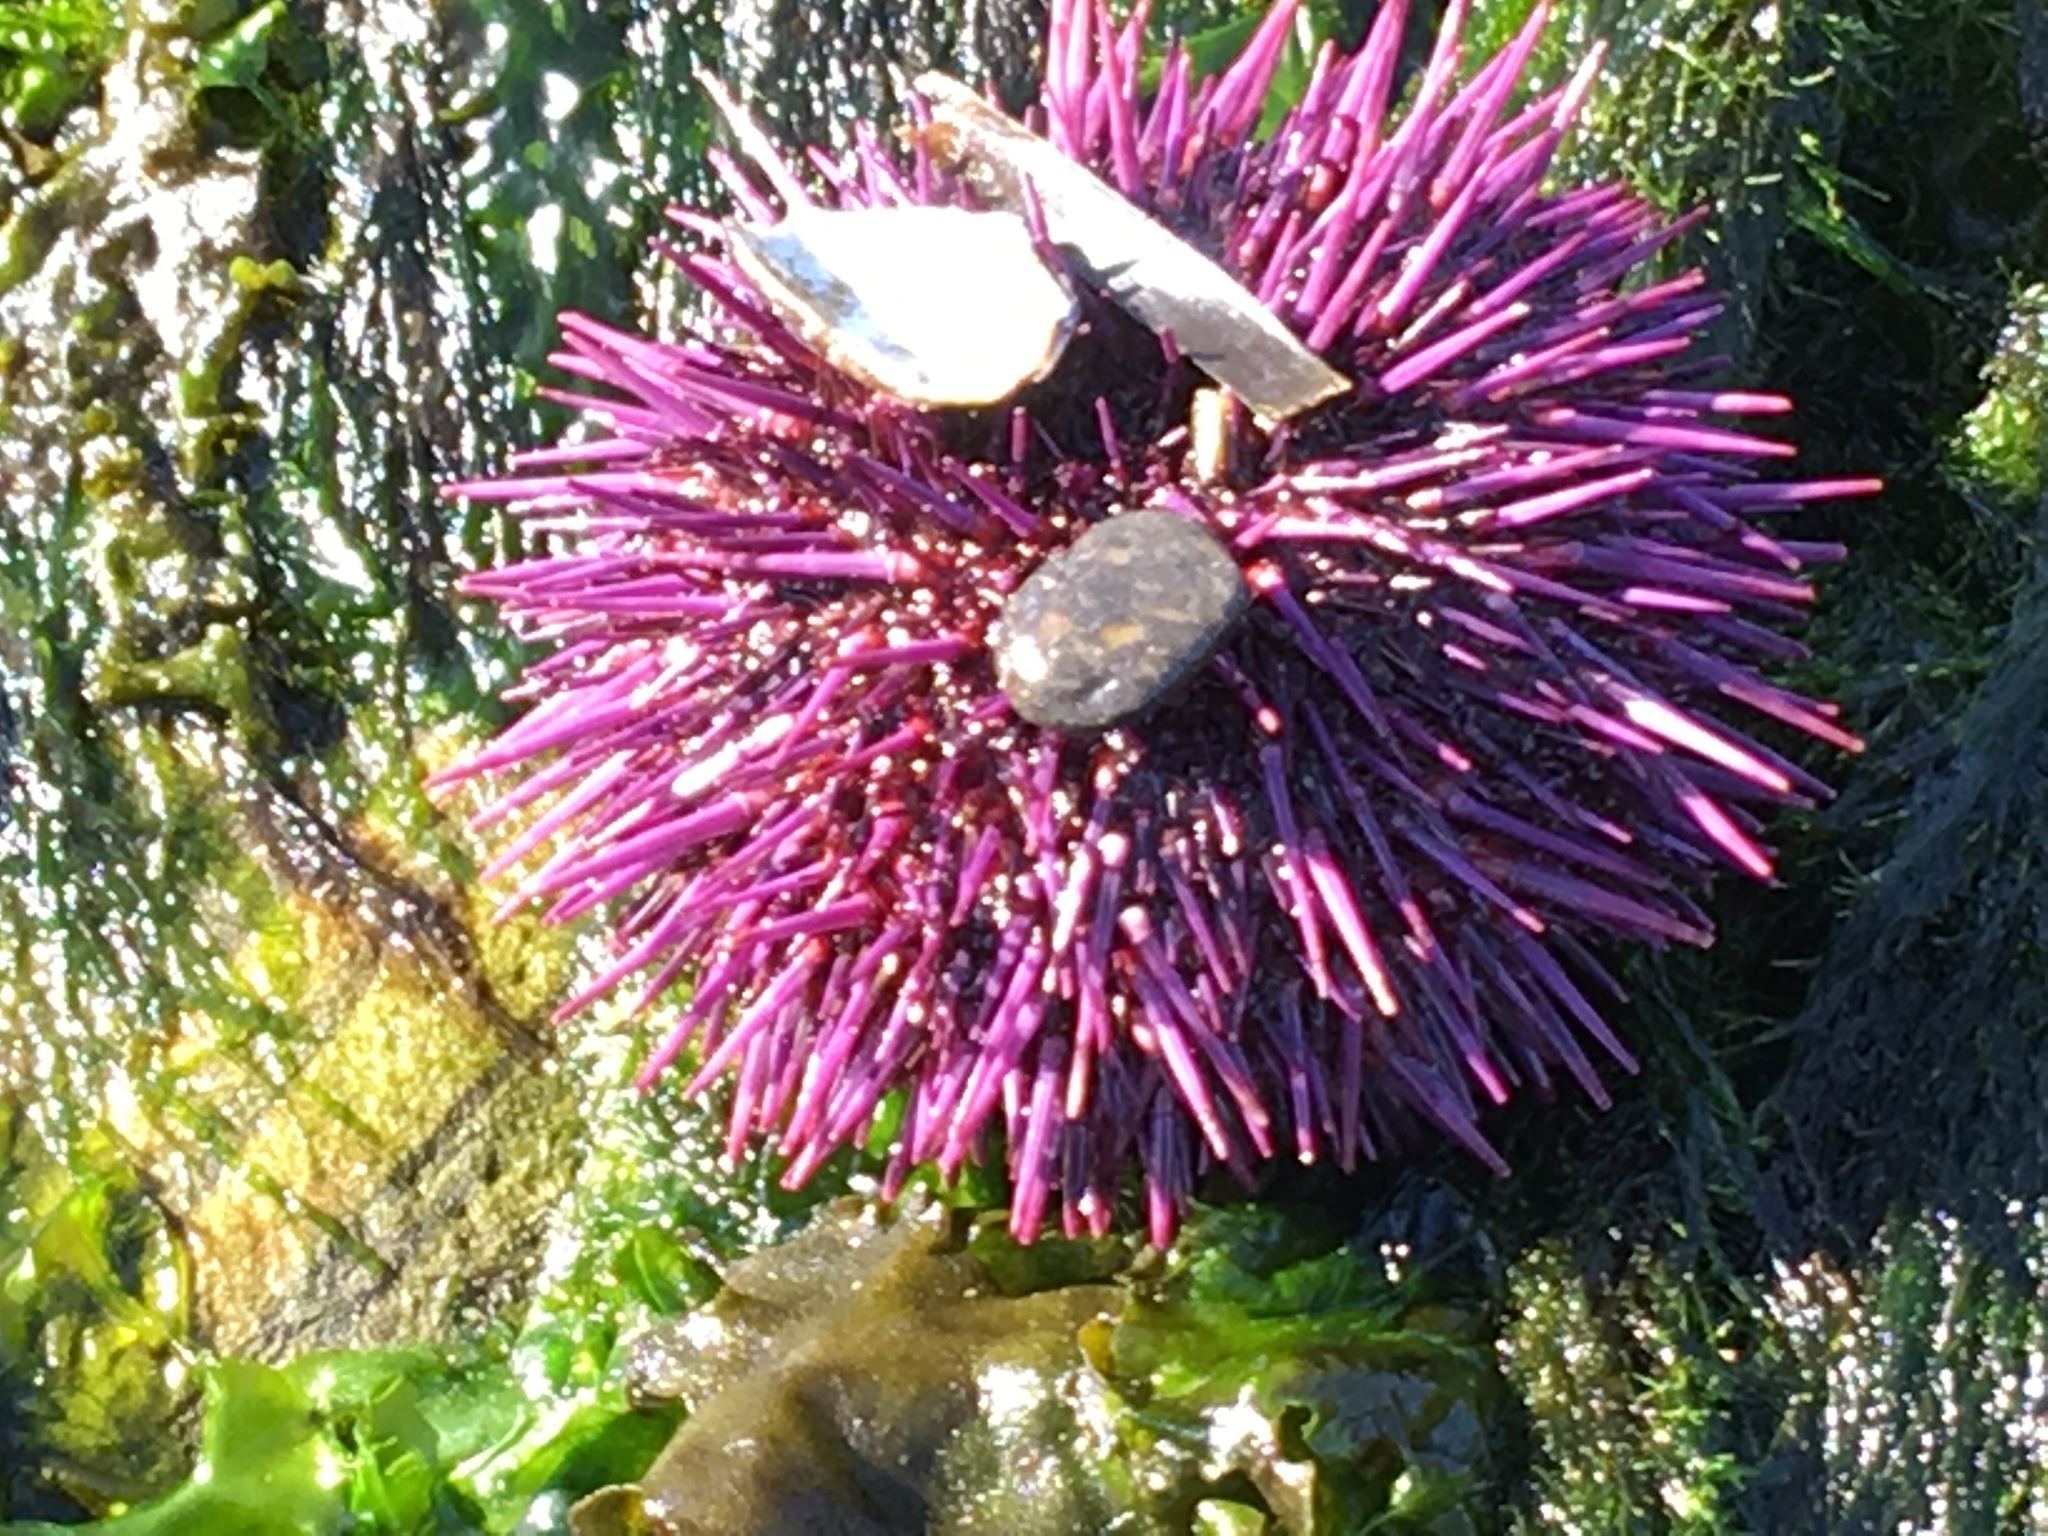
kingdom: Animalia
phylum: Echinodermata
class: Echinoidea
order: Camarodonta
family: Strongylocentrotidae
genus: Strongylocentrotus
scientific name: Strongylocentrotus purpuratus
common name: Purple sea urchin
